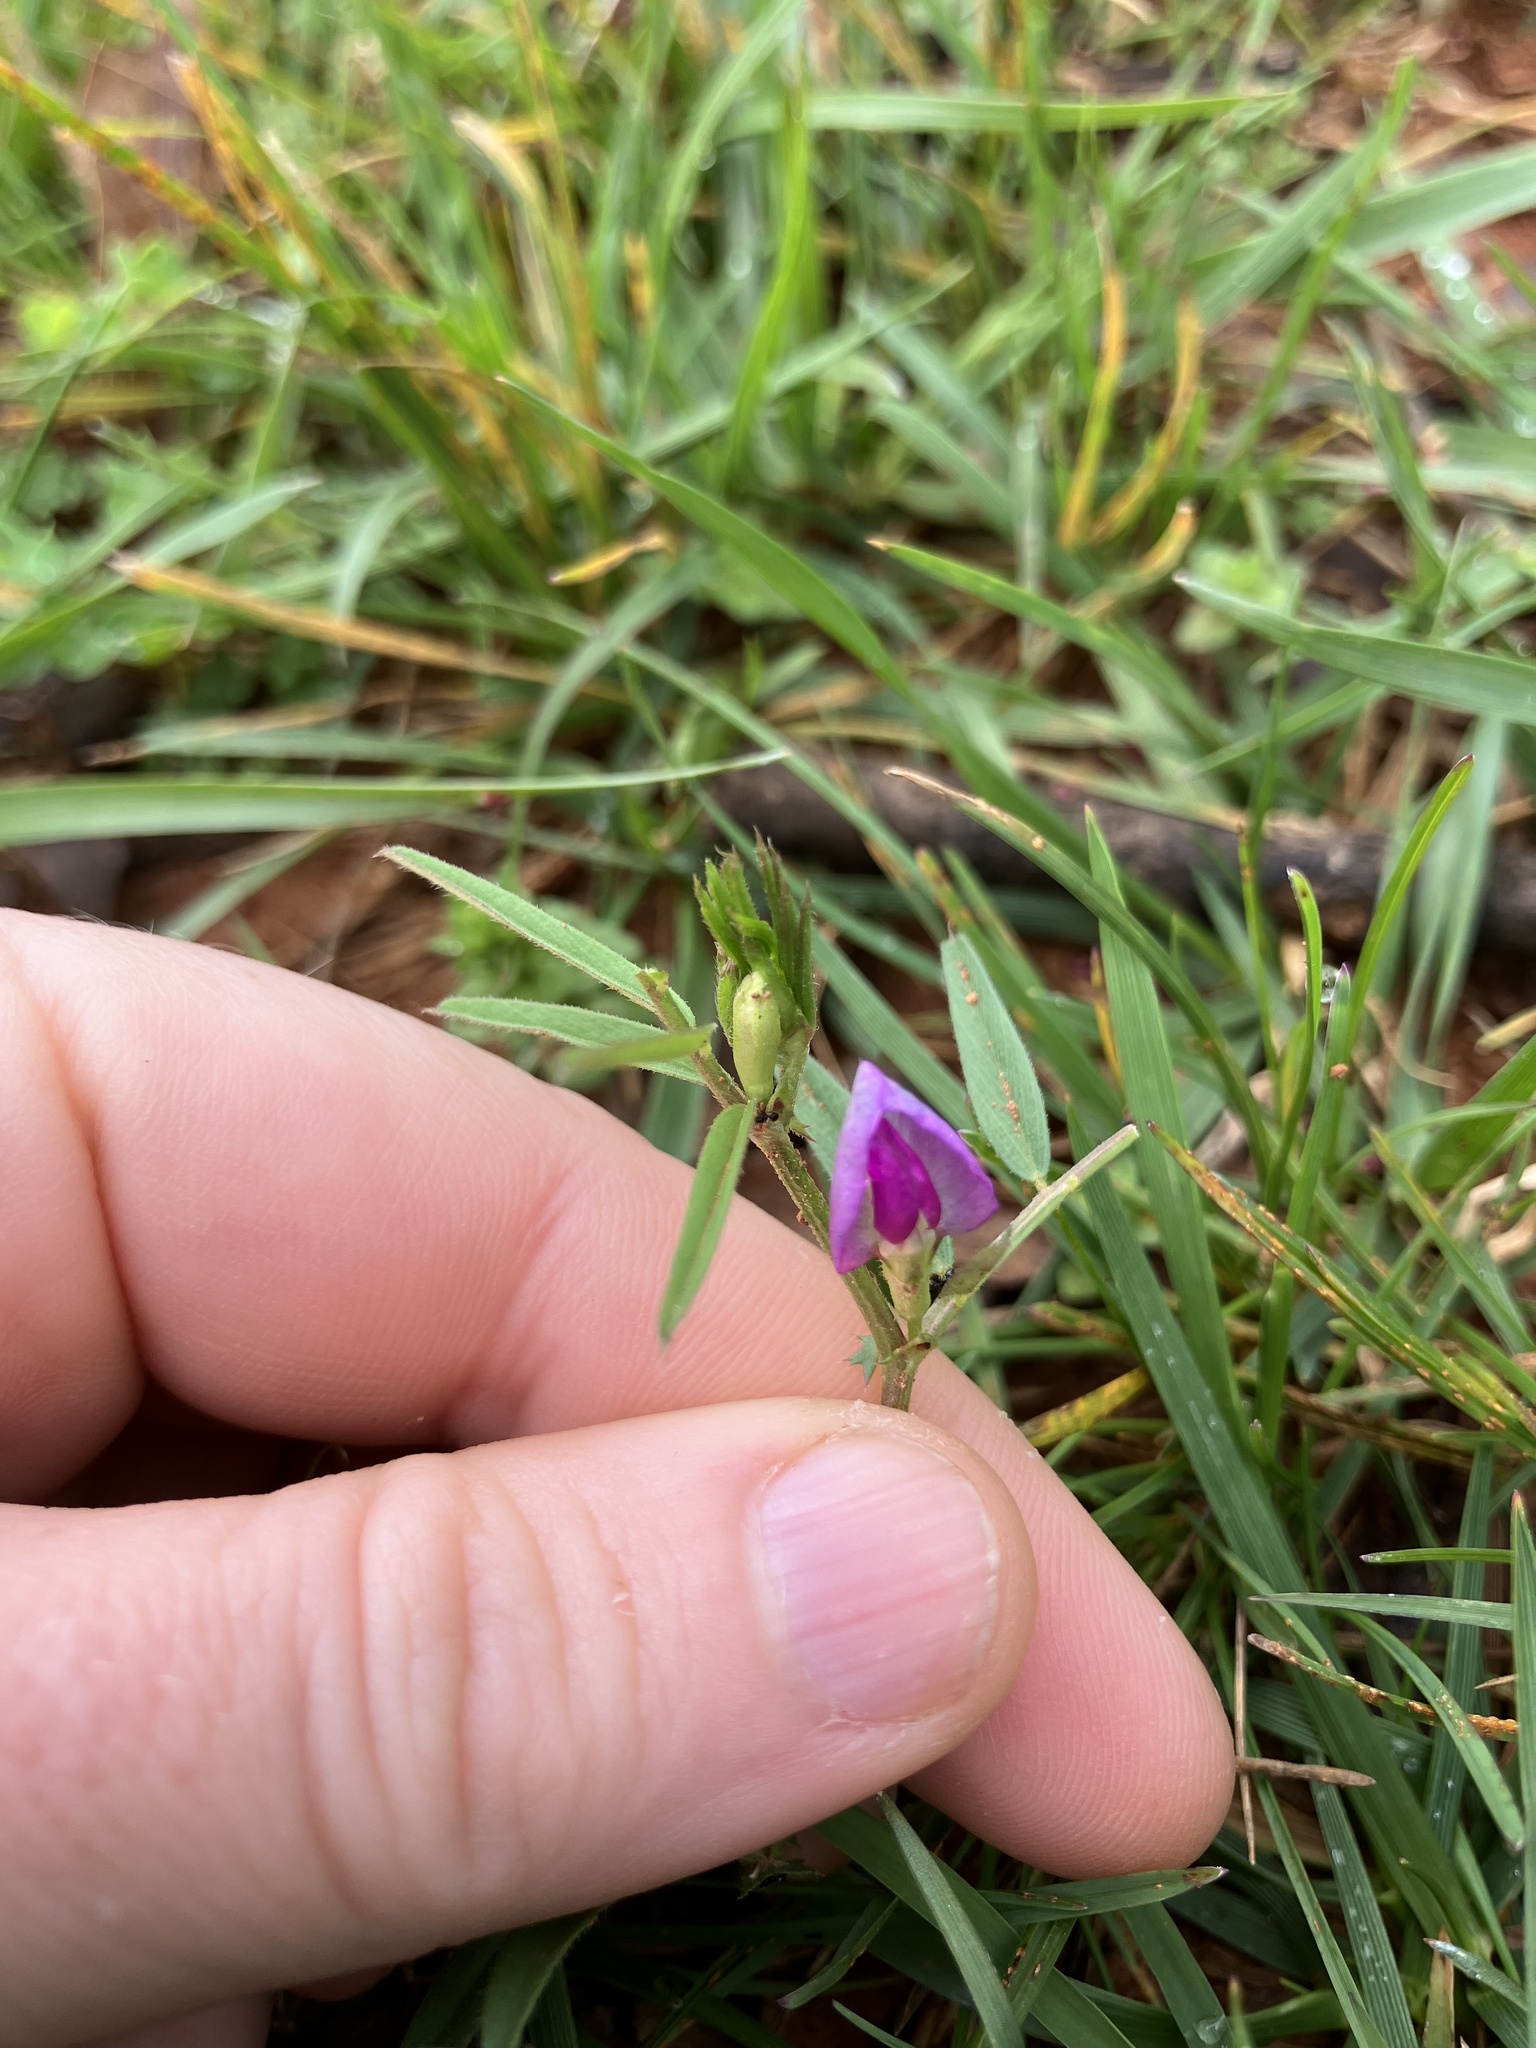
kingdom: Plantae
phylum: Tracheophyta
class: Magnoliopsida
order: Fabales
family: Fabaceae
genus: Vicia
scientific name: Vicia sativa
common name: Garden vetch
